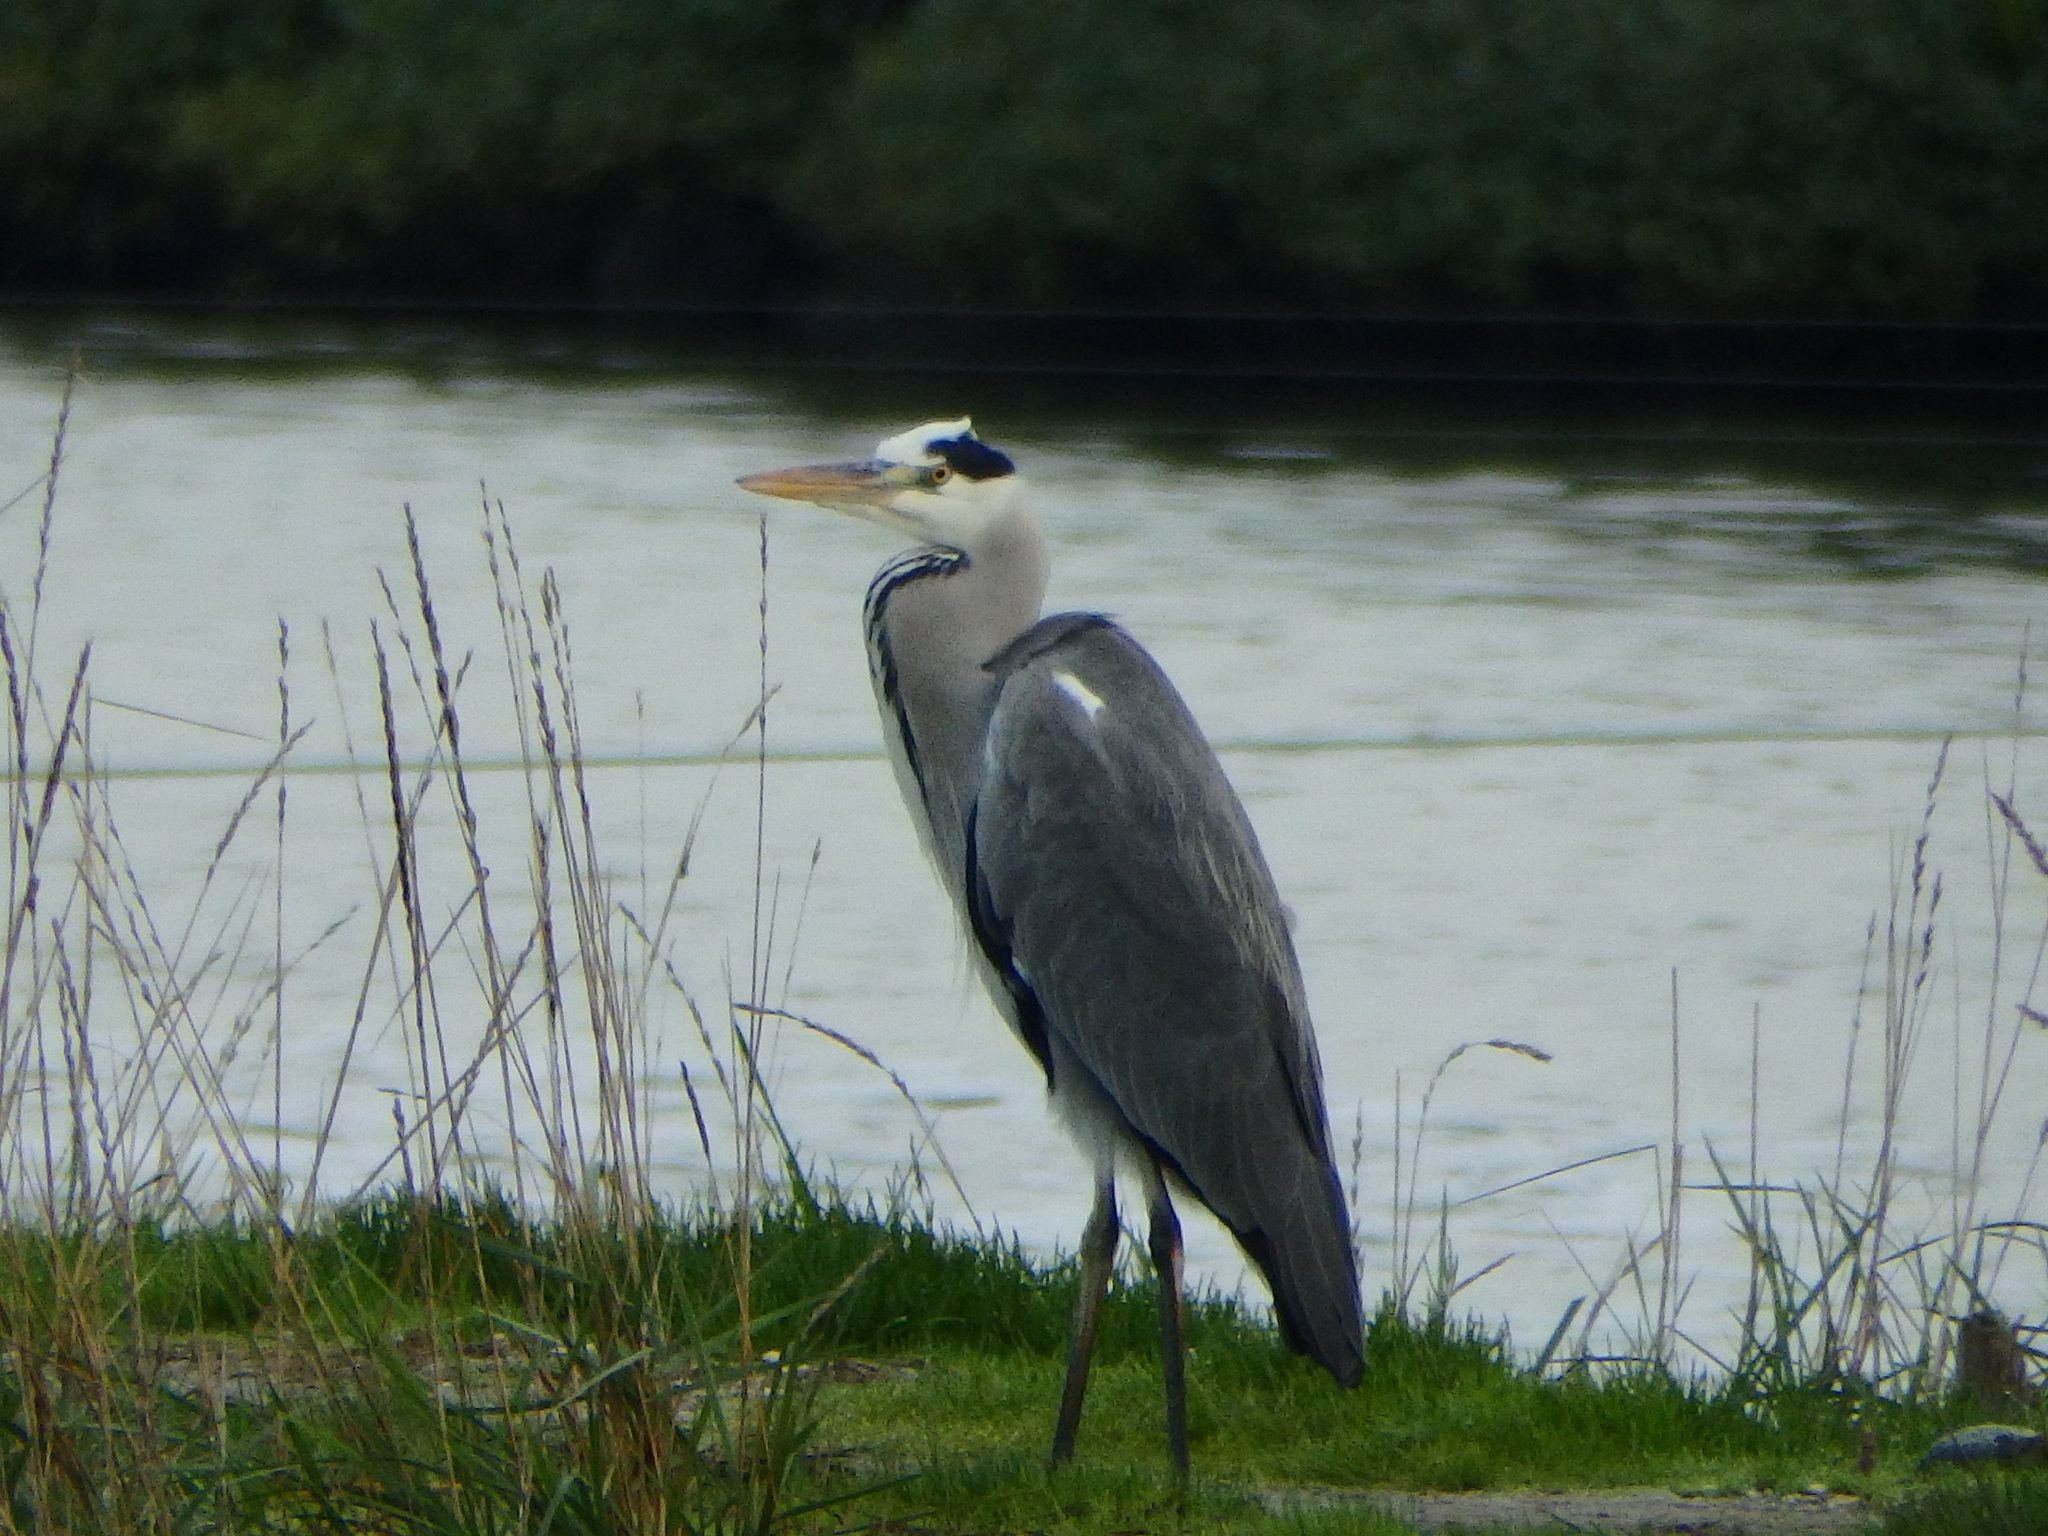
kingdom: Animalia
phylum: Chordata
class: Aves
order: Pelecaniformes
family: Ardeidae
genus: Ardea
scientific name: Ardea cinerea
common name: Grey heron
